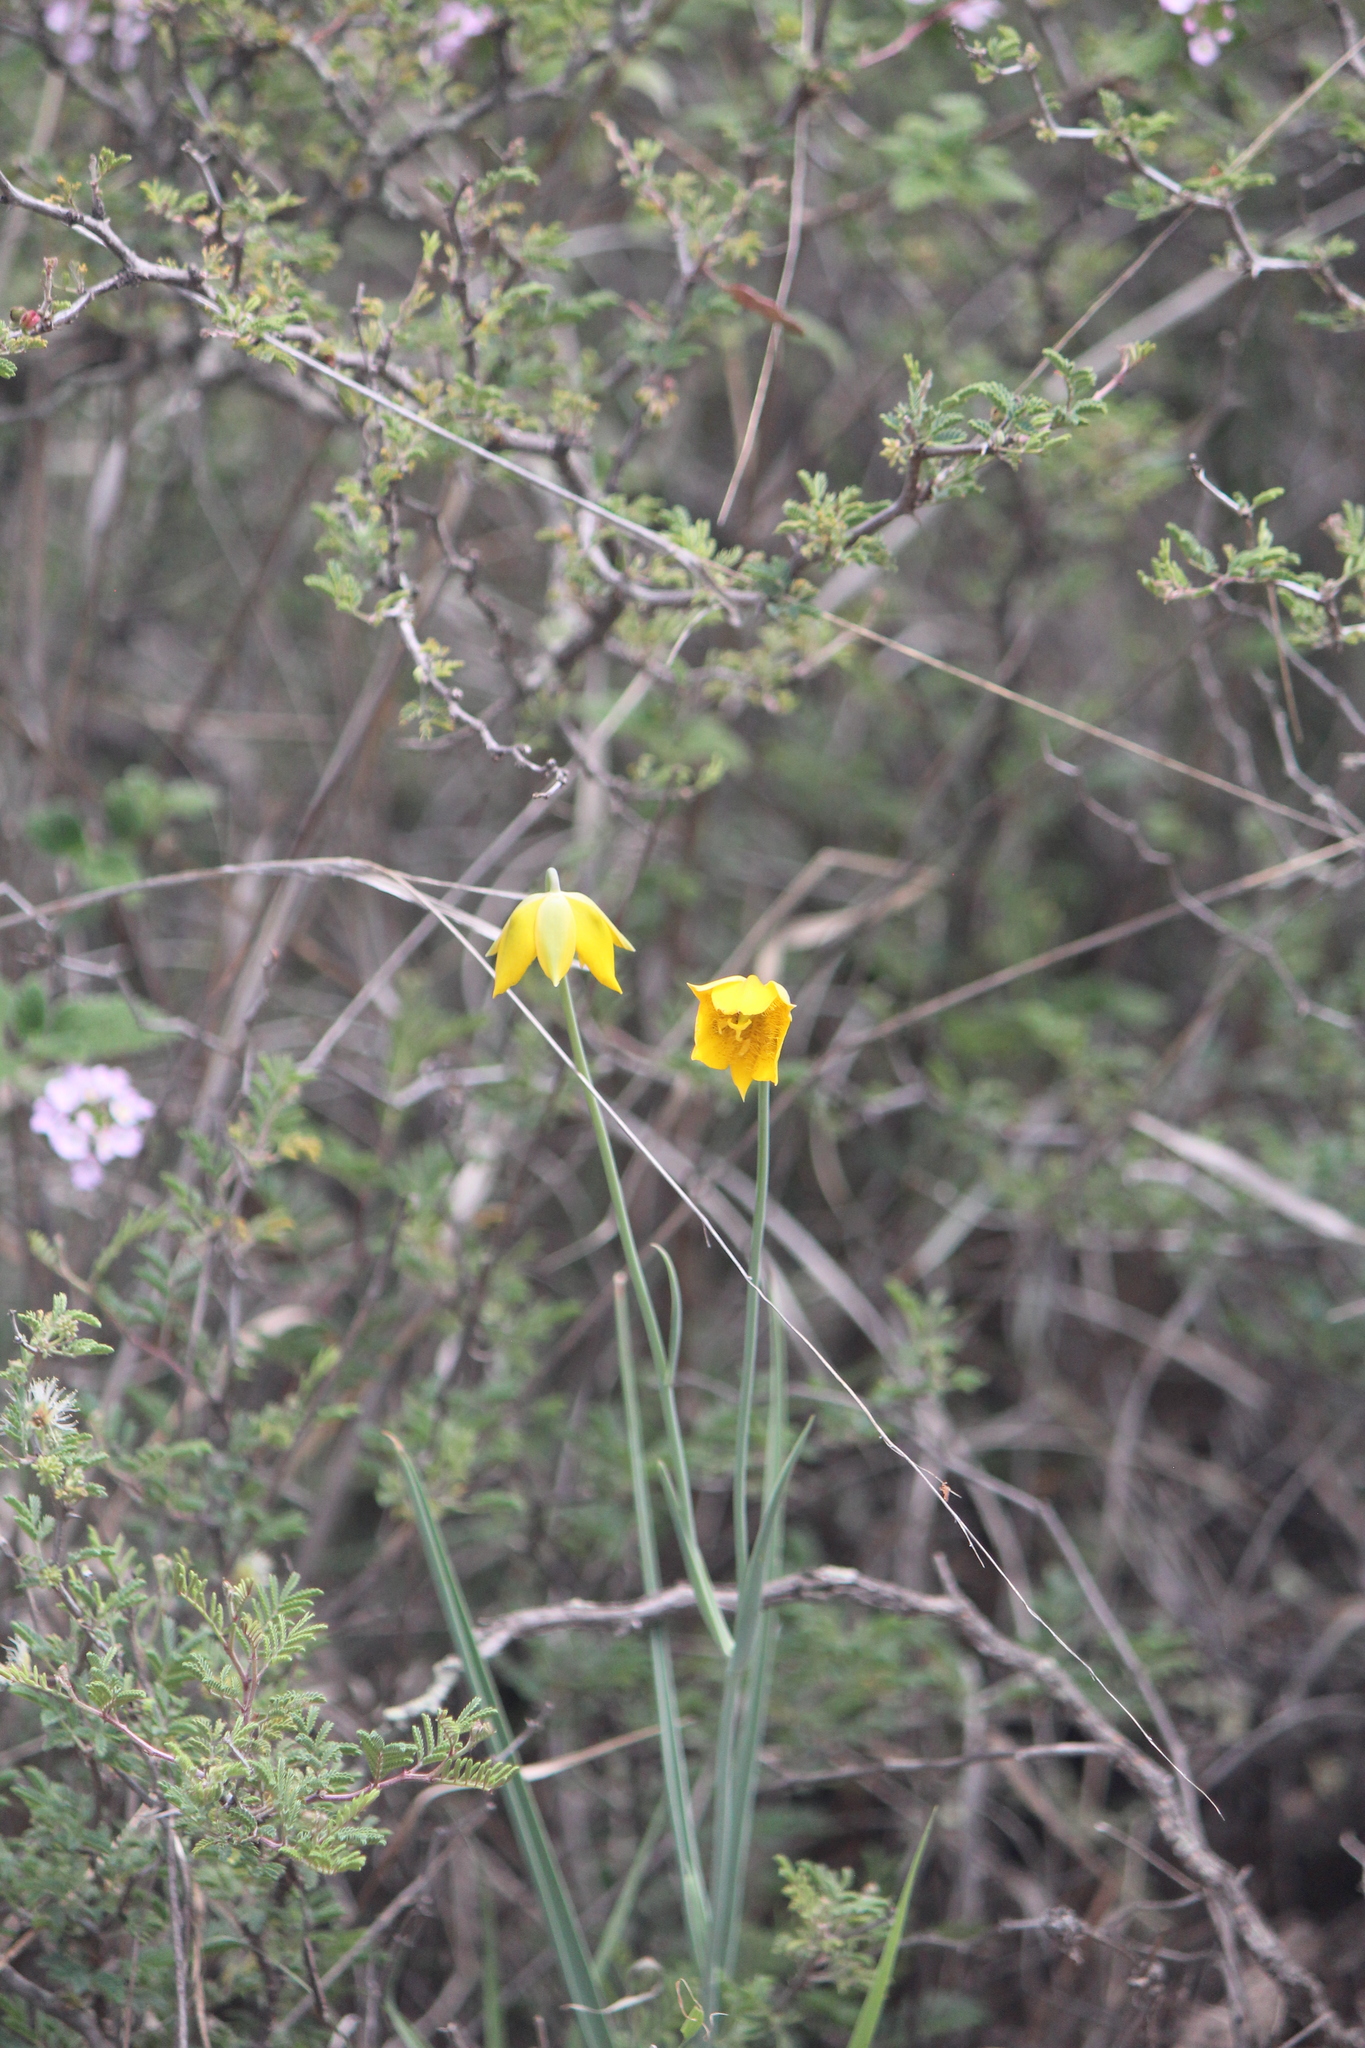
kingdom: Plantae
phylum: Tracheophyta
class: Liliopsida
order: Liliales
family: Liliaceae
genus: Calochortus
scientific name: Calochortus barbatus
